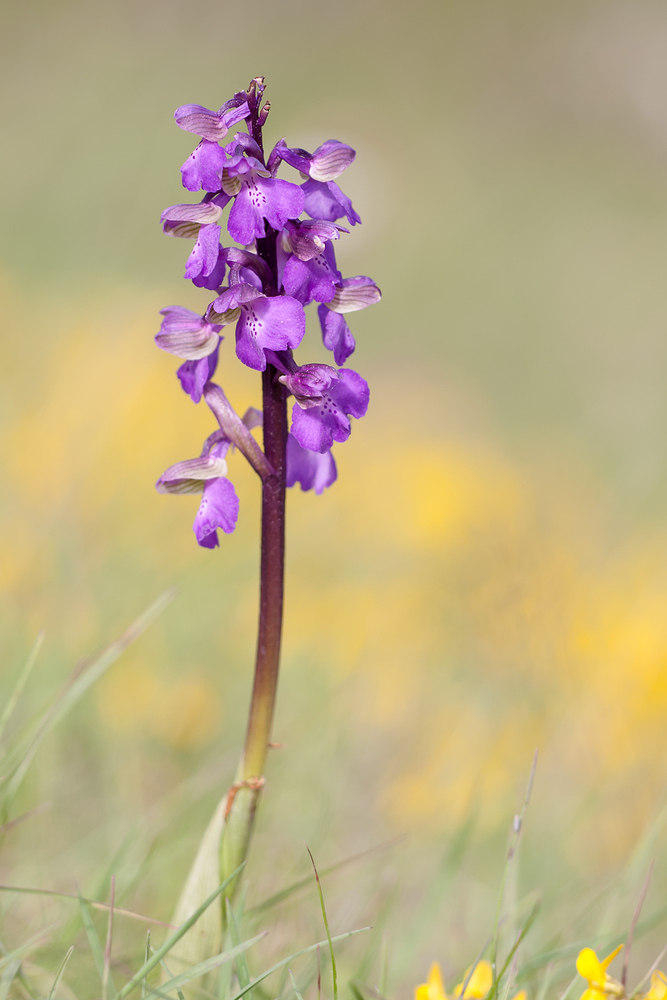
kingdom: Plantae
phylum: Tracheophyta
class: Liliopsida
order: Asparagales
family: Orchidaceae
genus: Anacamptis
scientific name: Anacamptis morio
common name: Green-winged orchid
